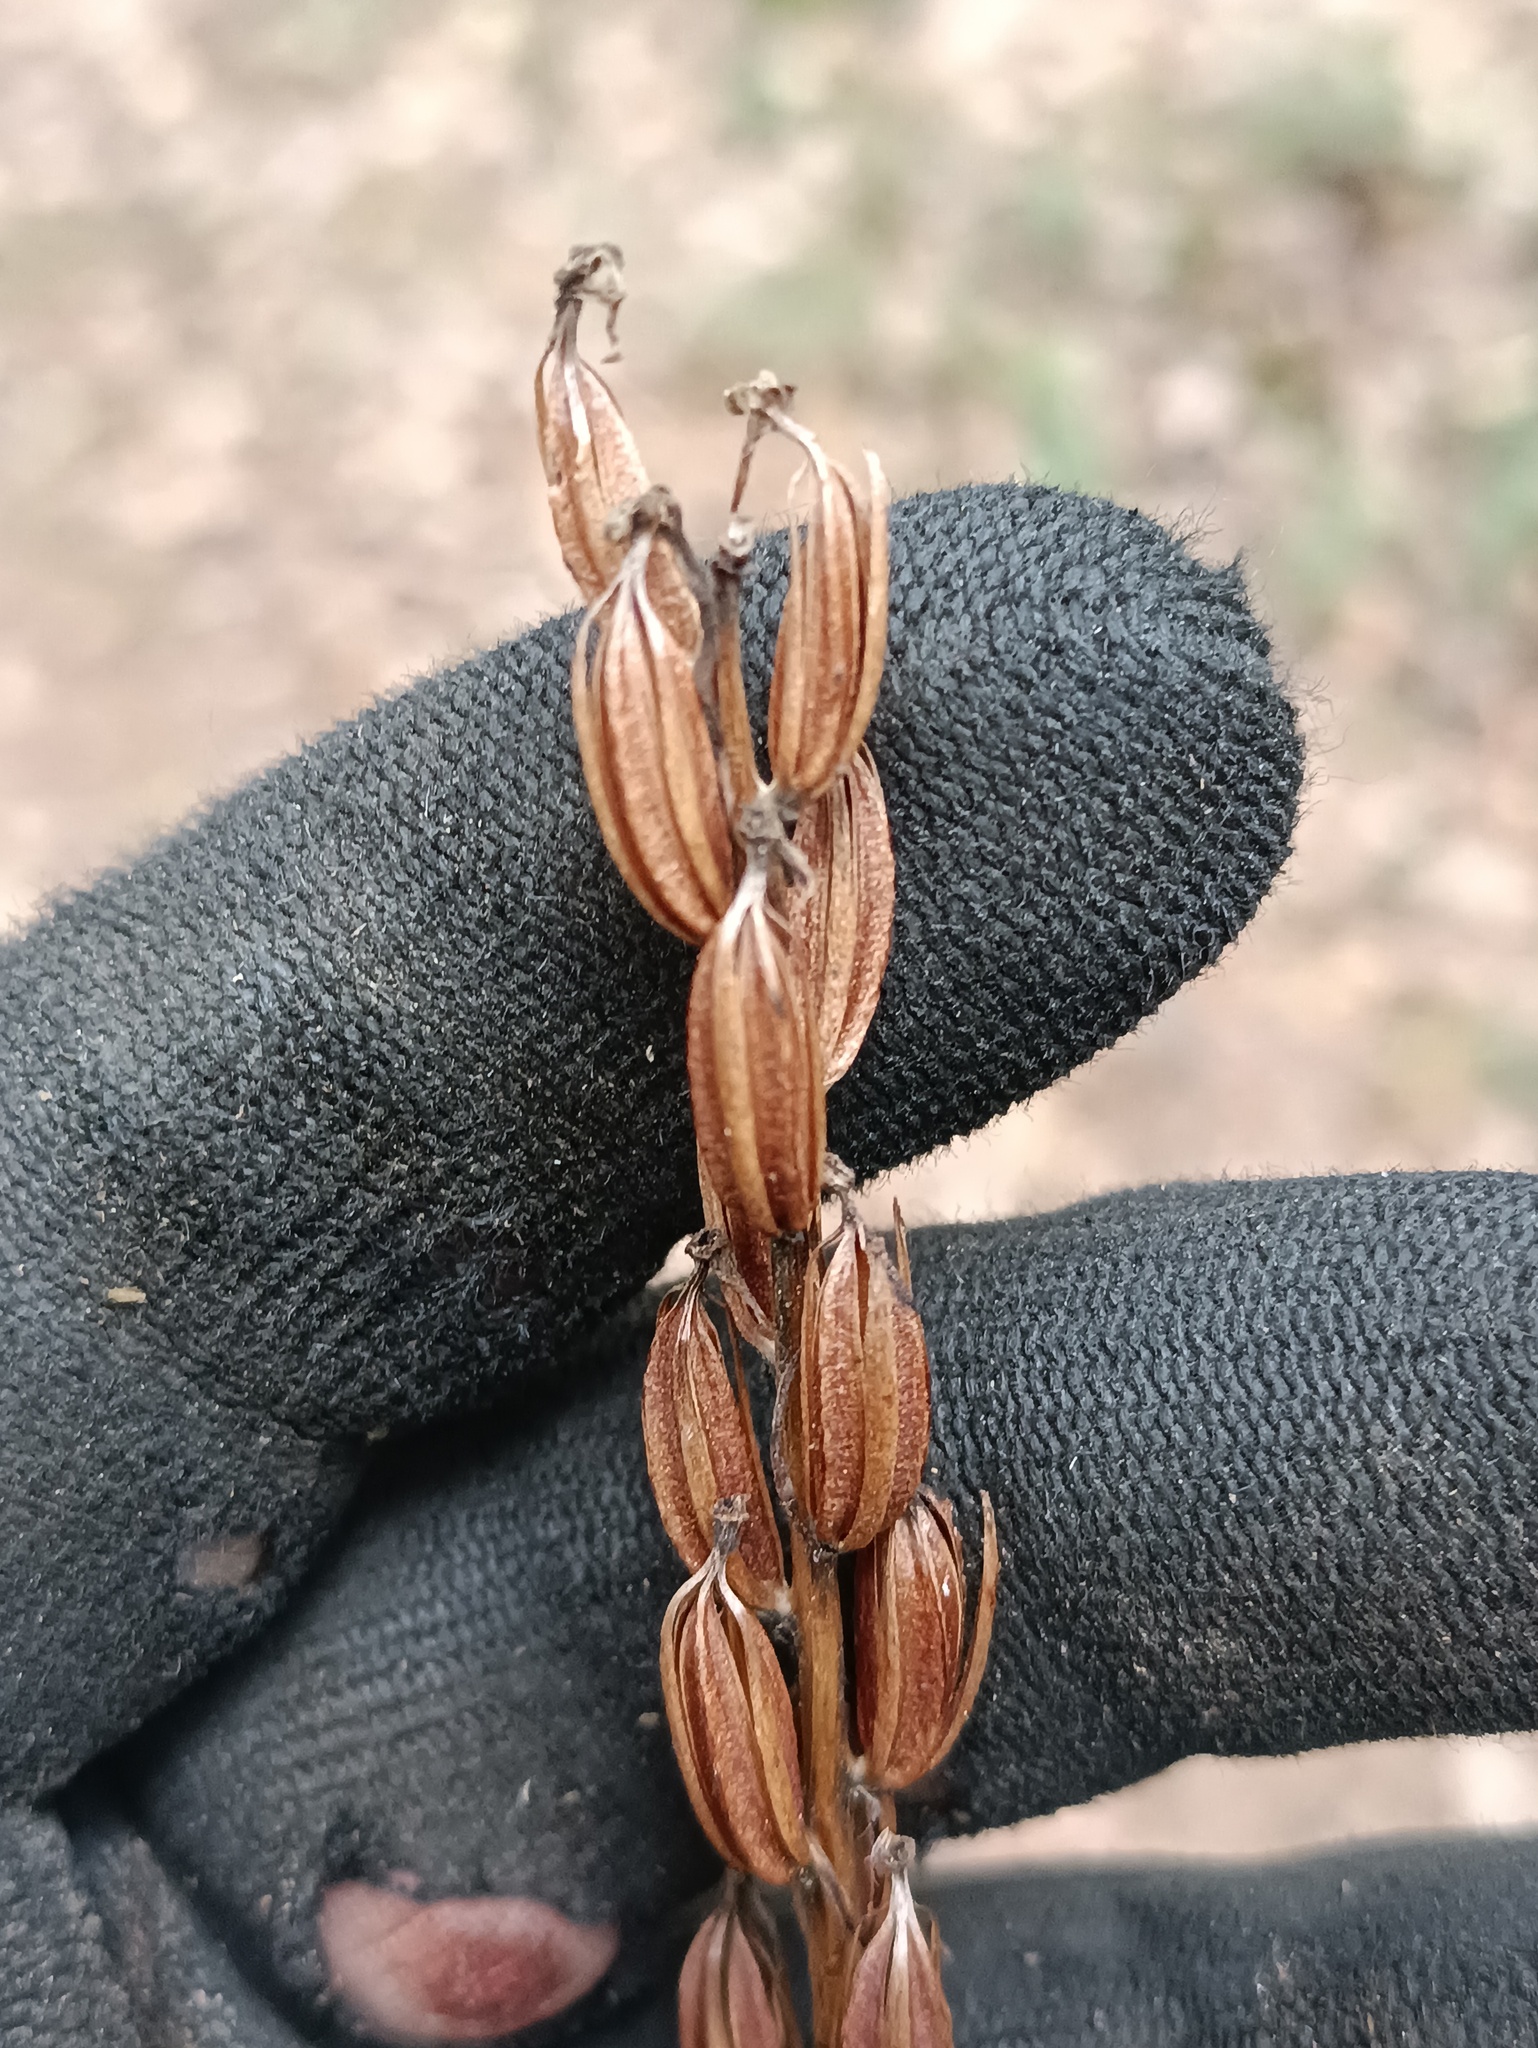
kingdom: Plantae
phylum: Tracheophyta
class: Liliopsida
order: Asparagales
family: Orchidaceae
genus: Platanthera
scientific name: Platanthera bifolia
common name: Lesser butterfly-orchid
